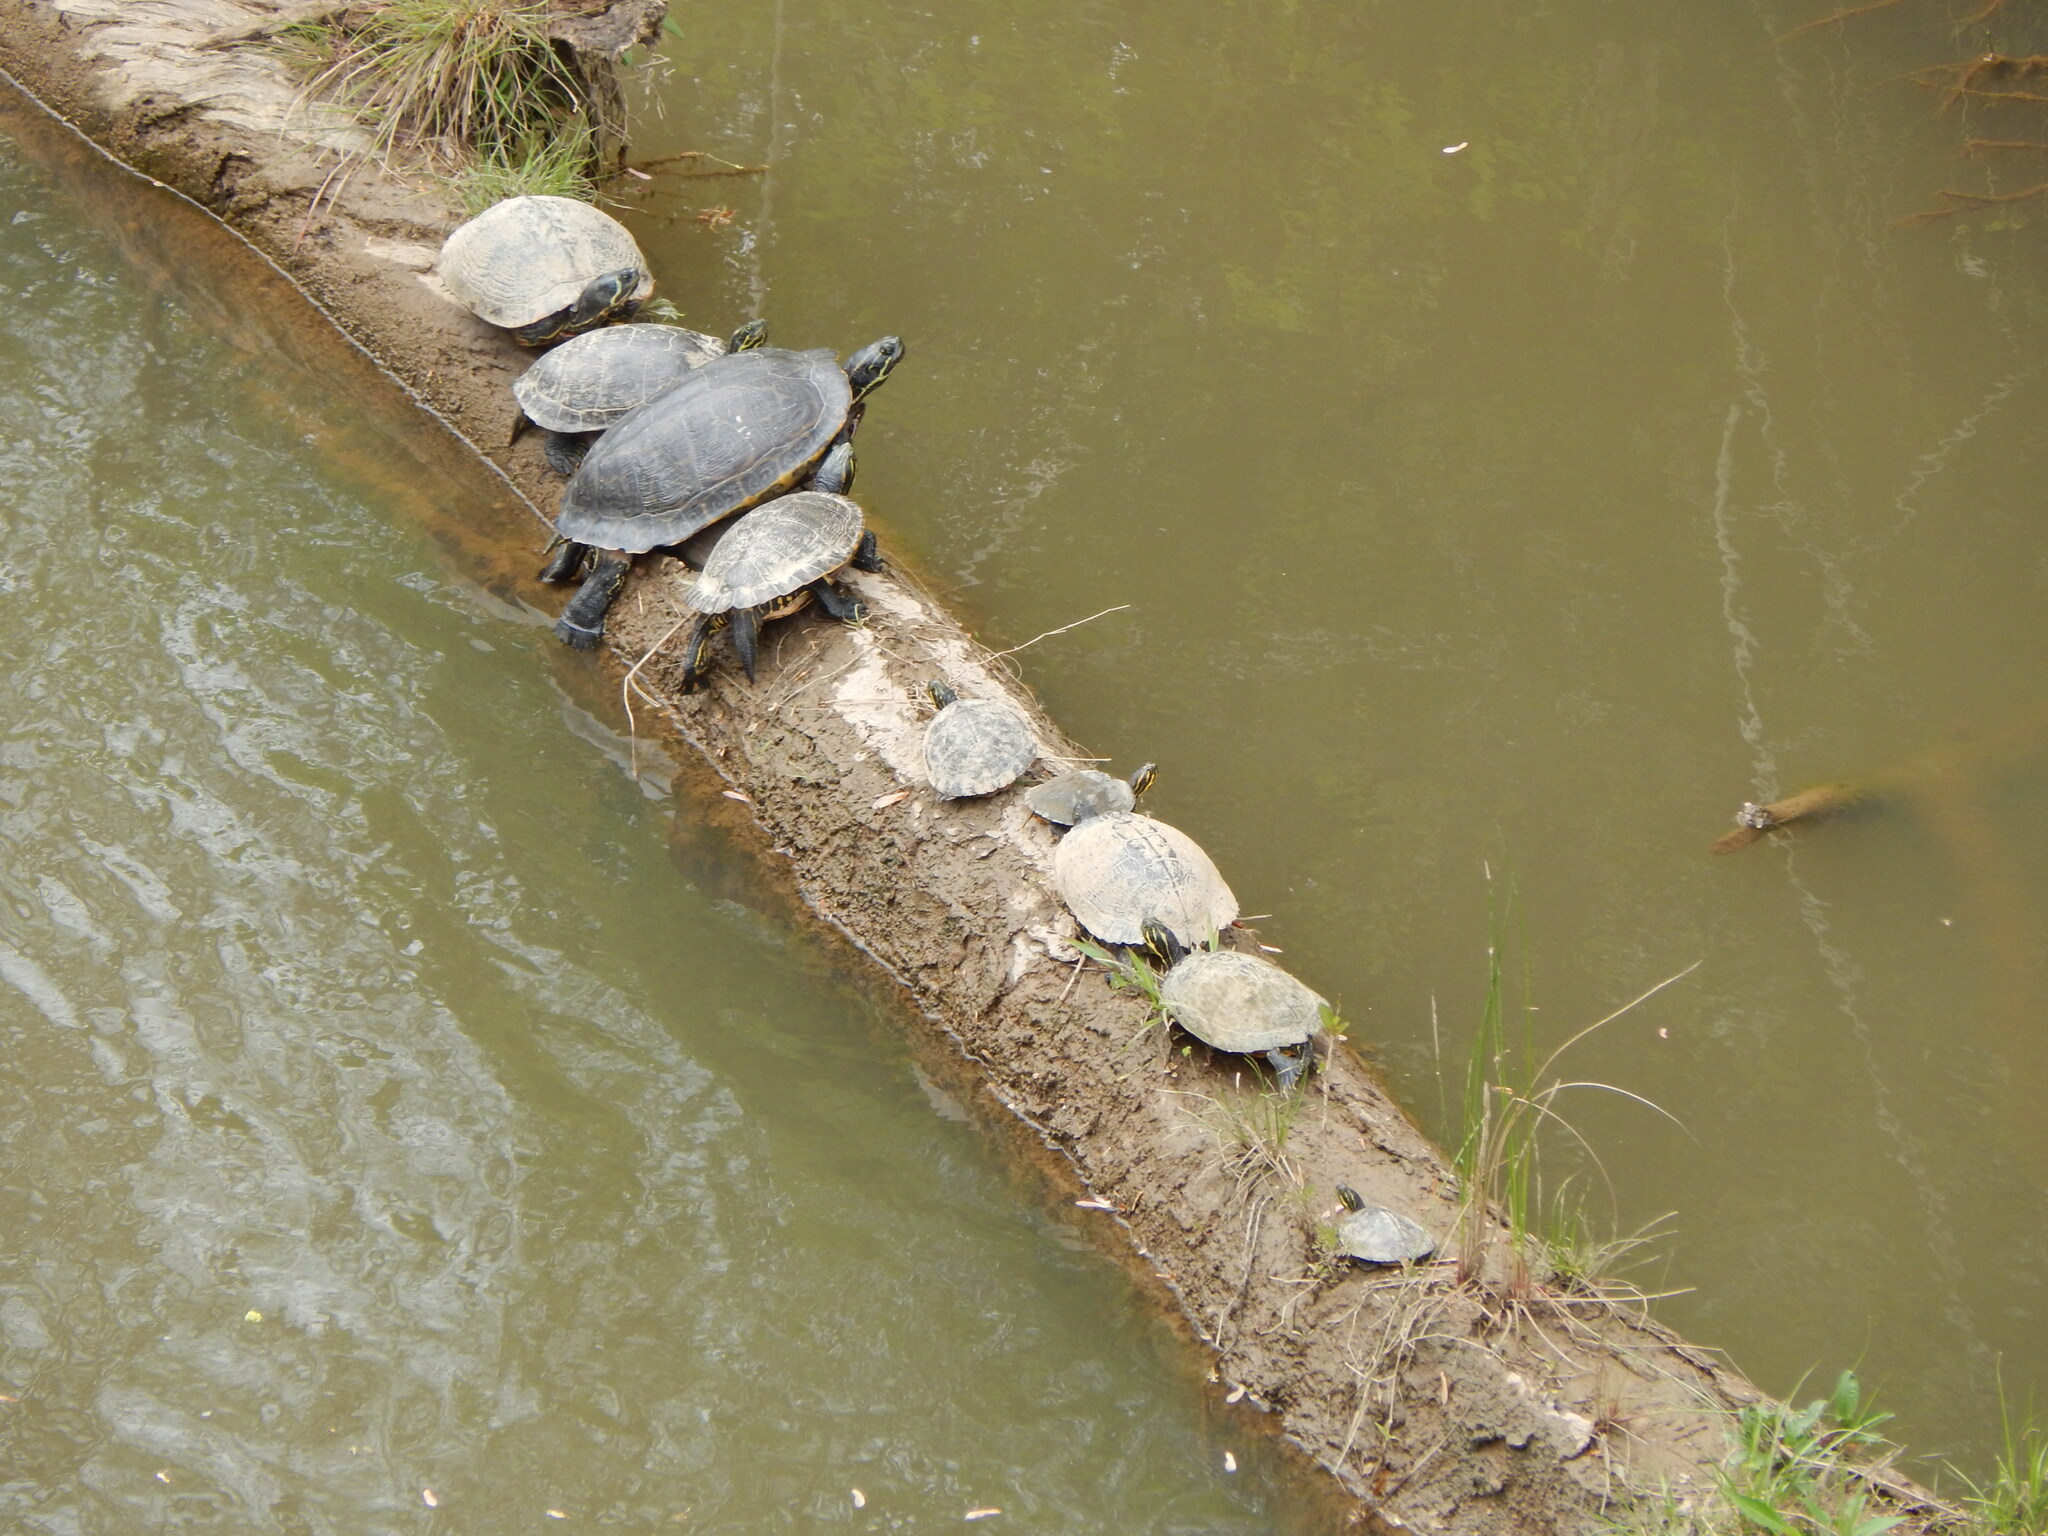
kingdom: Animalia
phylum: Chordata
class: Testudines
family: Emydidae
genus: Pseudemys
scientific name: Pseudemys concinna
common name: Eastern river cooter
